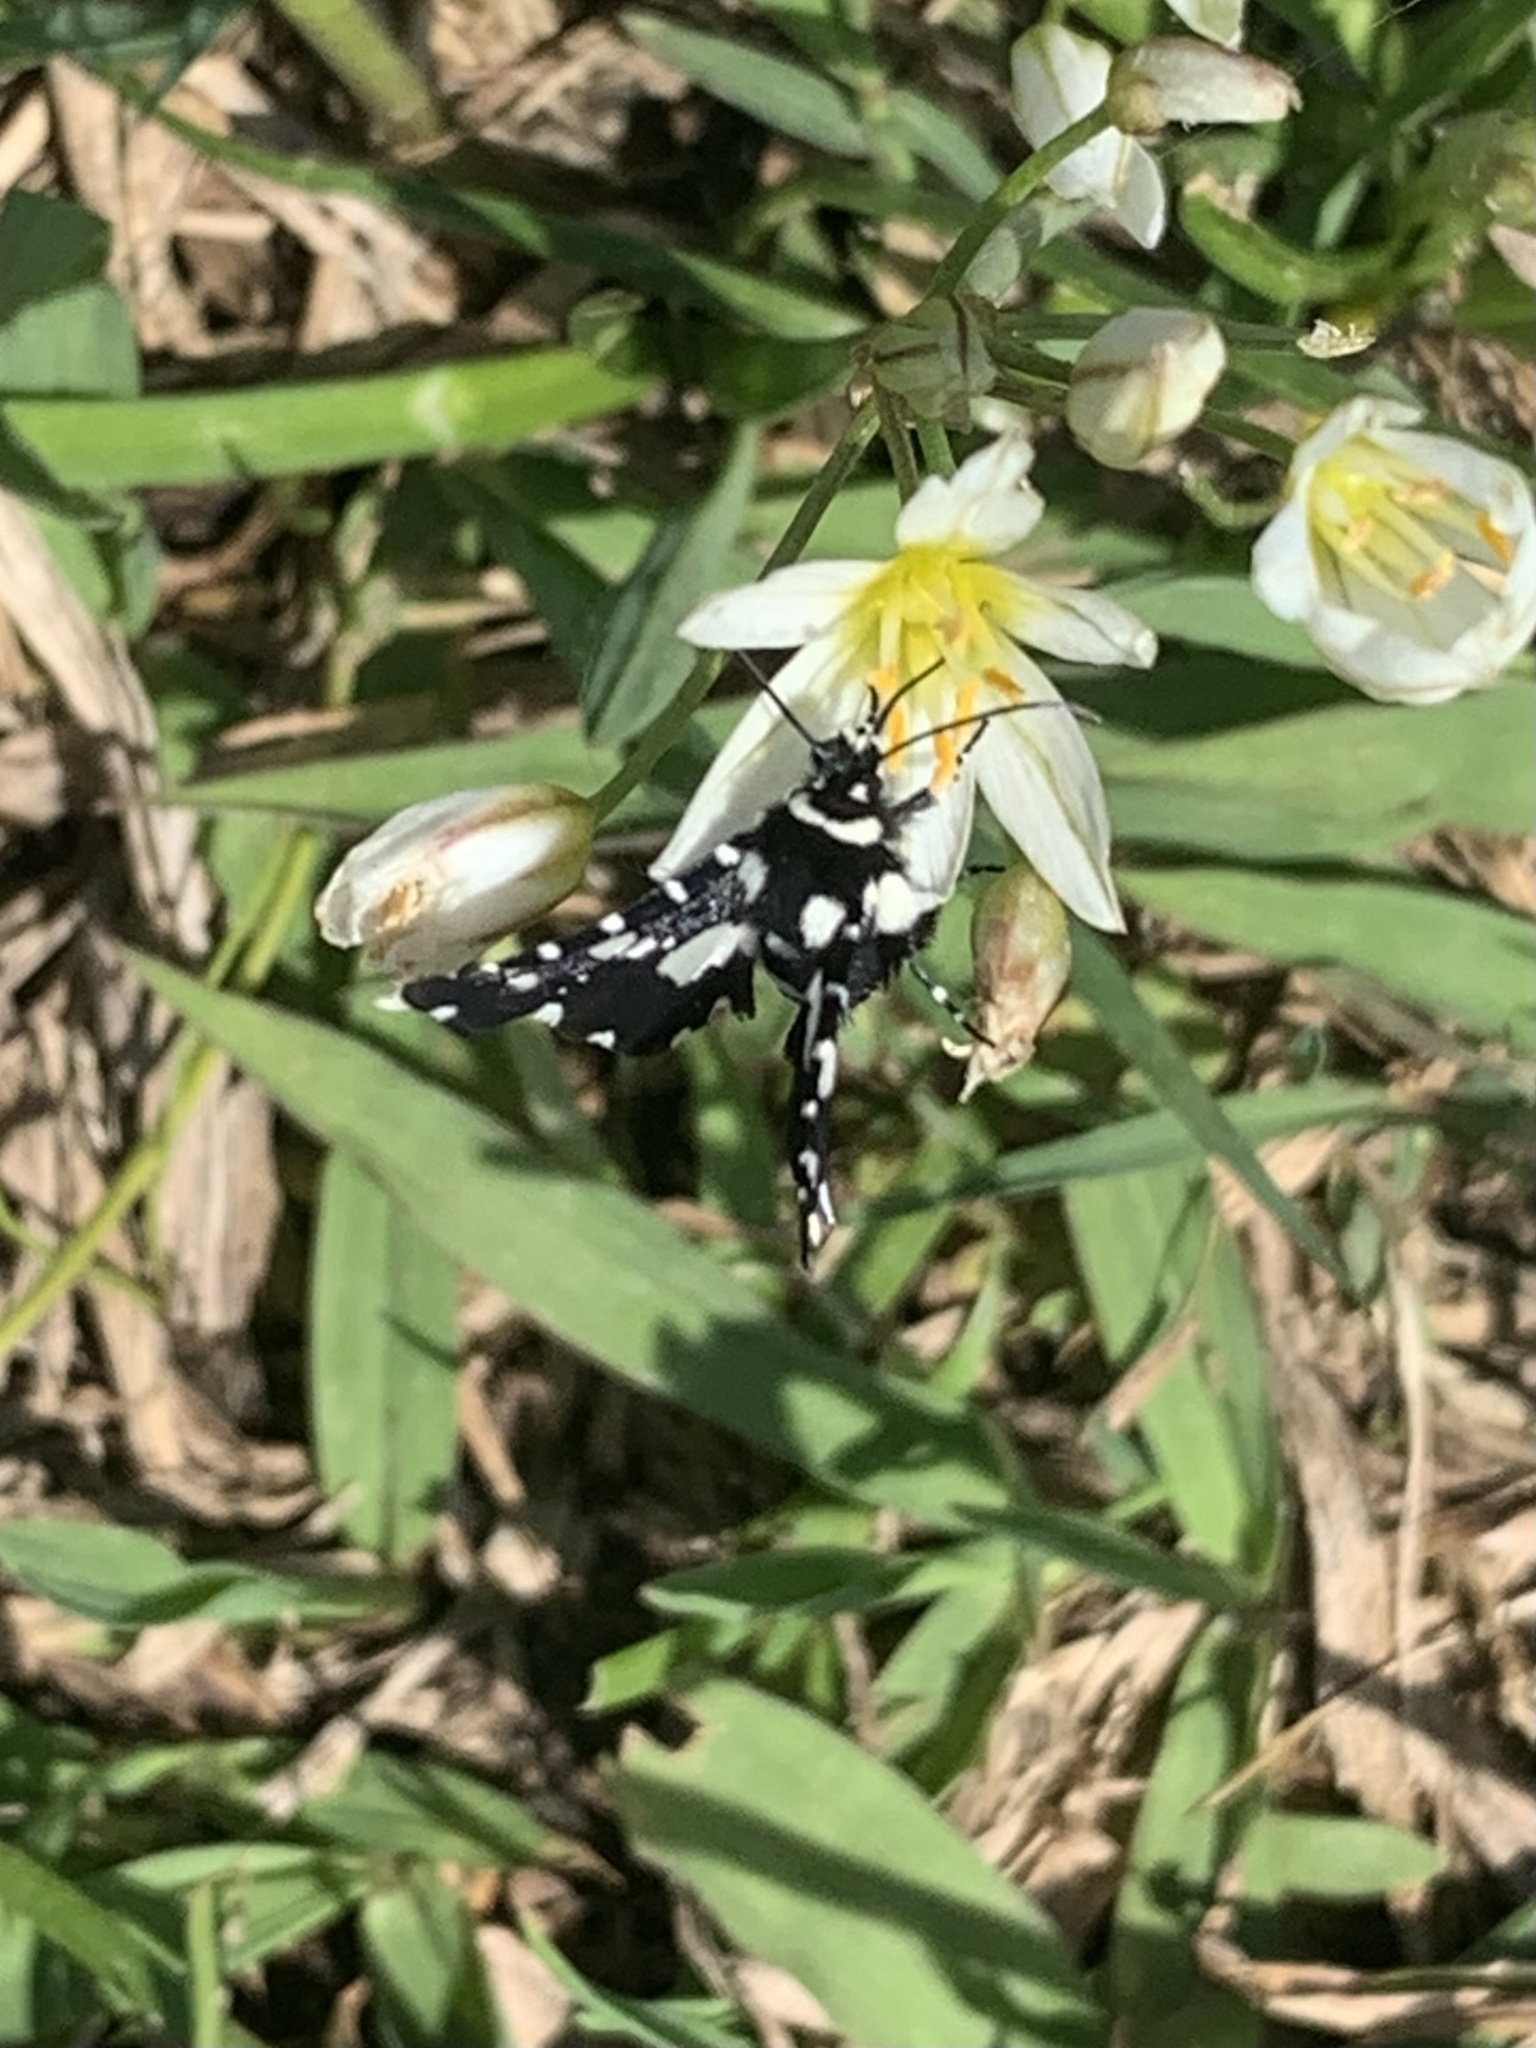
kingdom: Animalia
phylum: Arthropoda
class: Insecta
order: Lepidoptera
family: Thyrididae
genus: Pseudothyris
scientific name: Pseudothyris sepulchralis
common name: Mournful thyris moth
